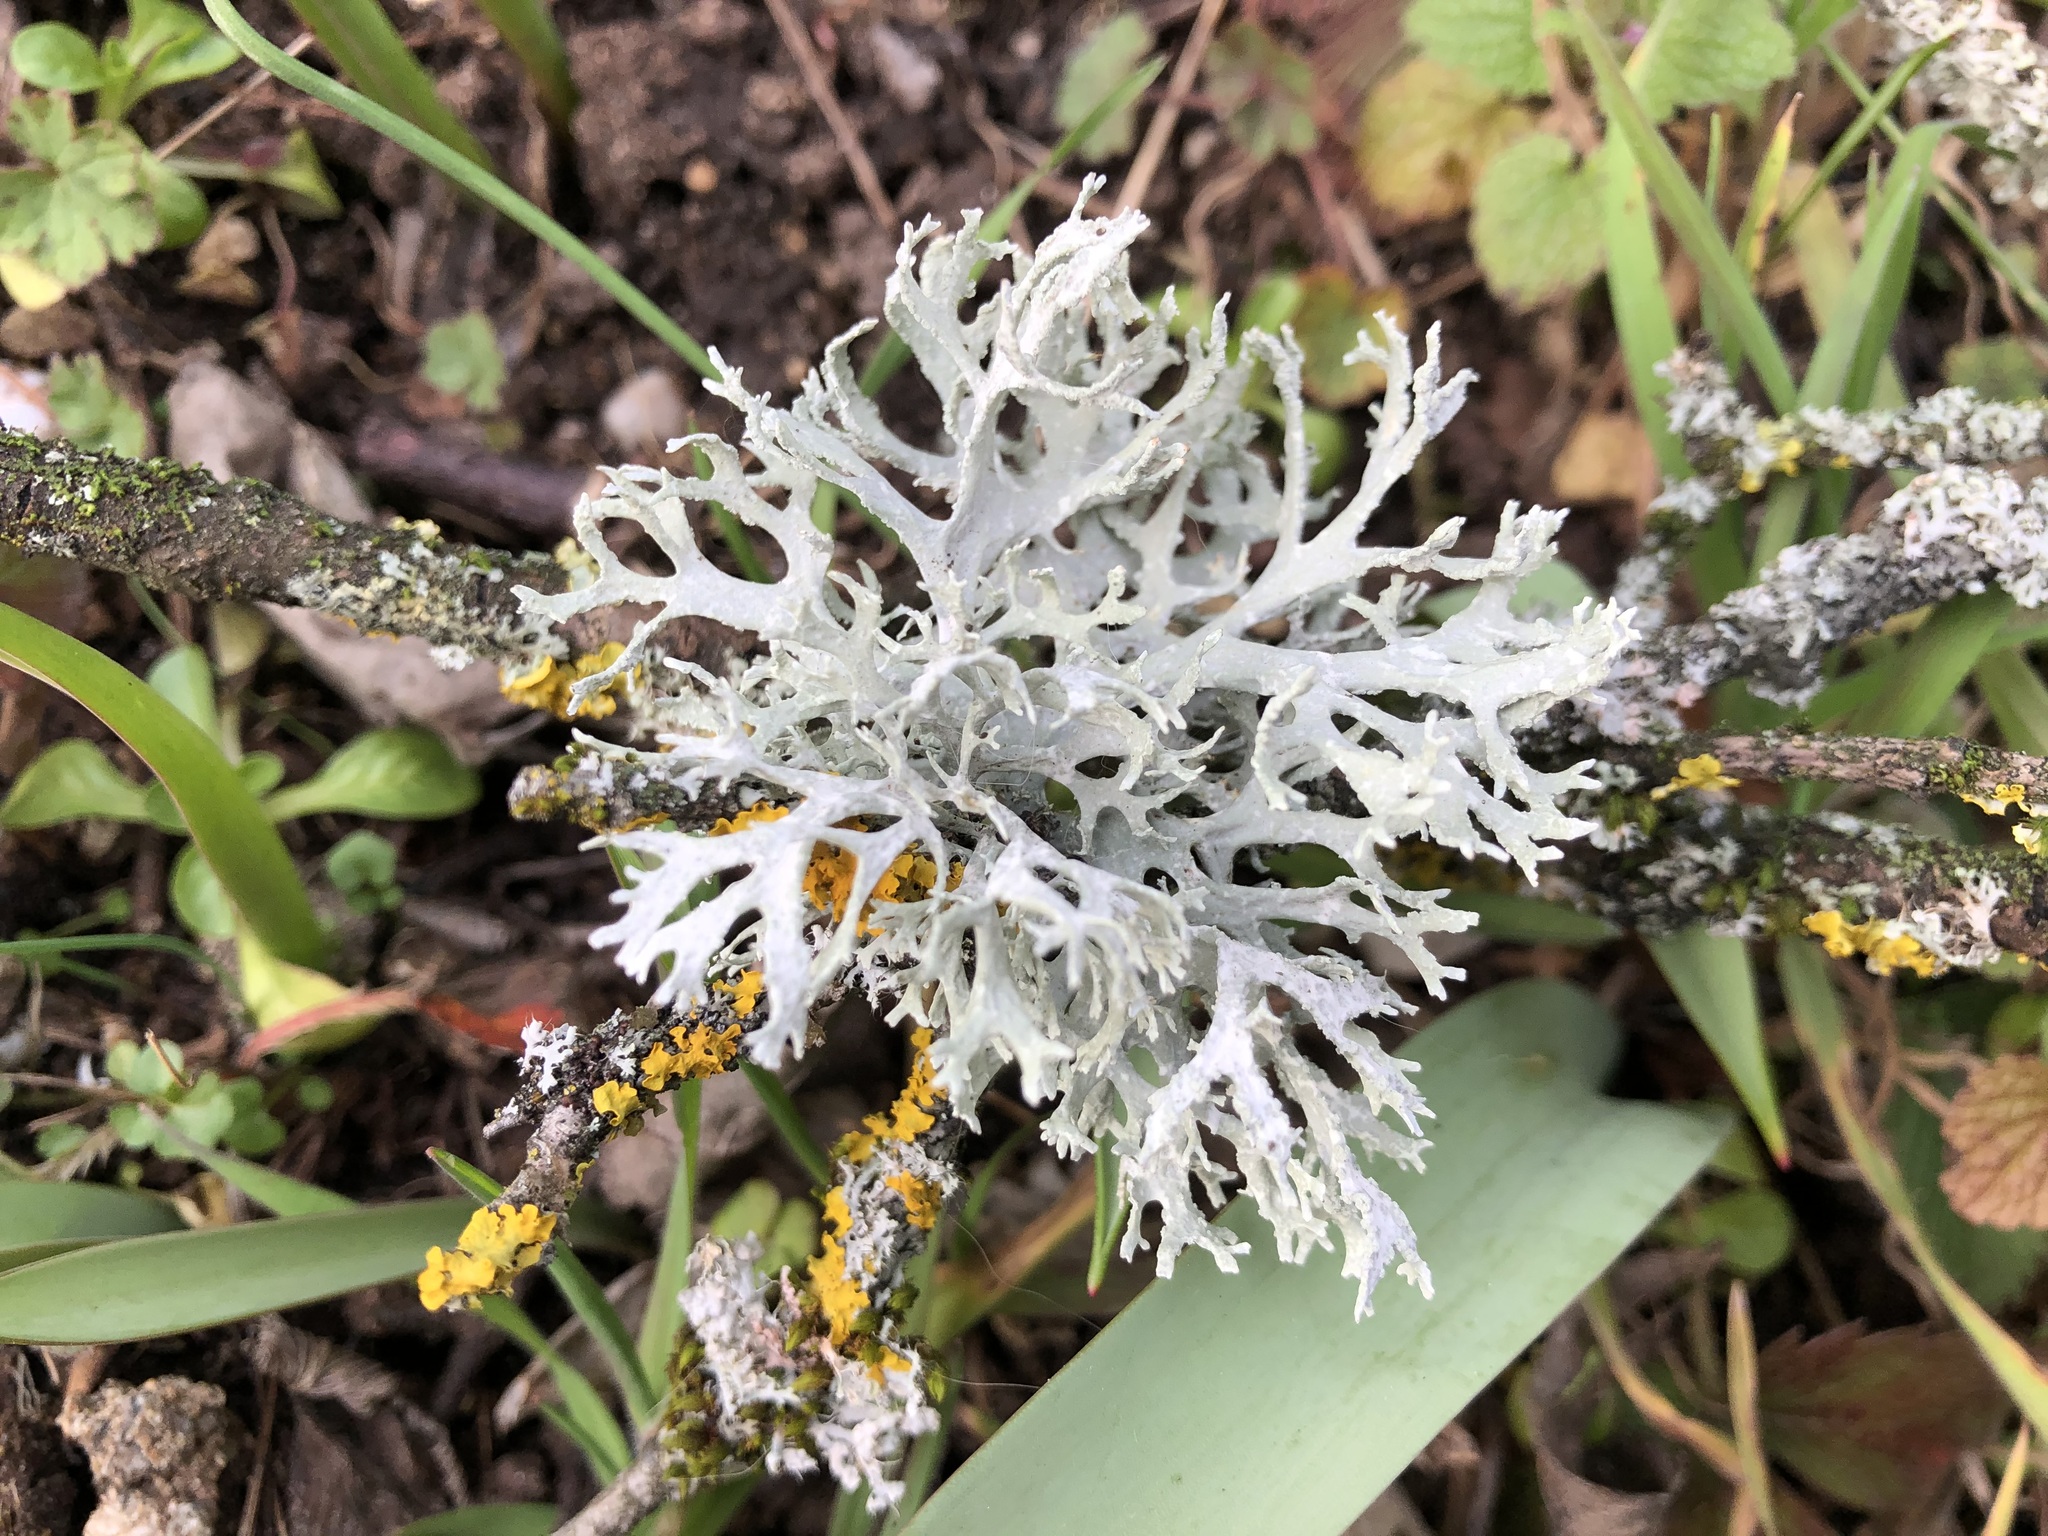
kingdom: Fungi
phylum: Ascomycota
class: Lecanoromycetes
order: Lecanorales
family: Parmeliaceae
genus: Evernia
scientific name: Evernia prunastri
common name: Oak moss
